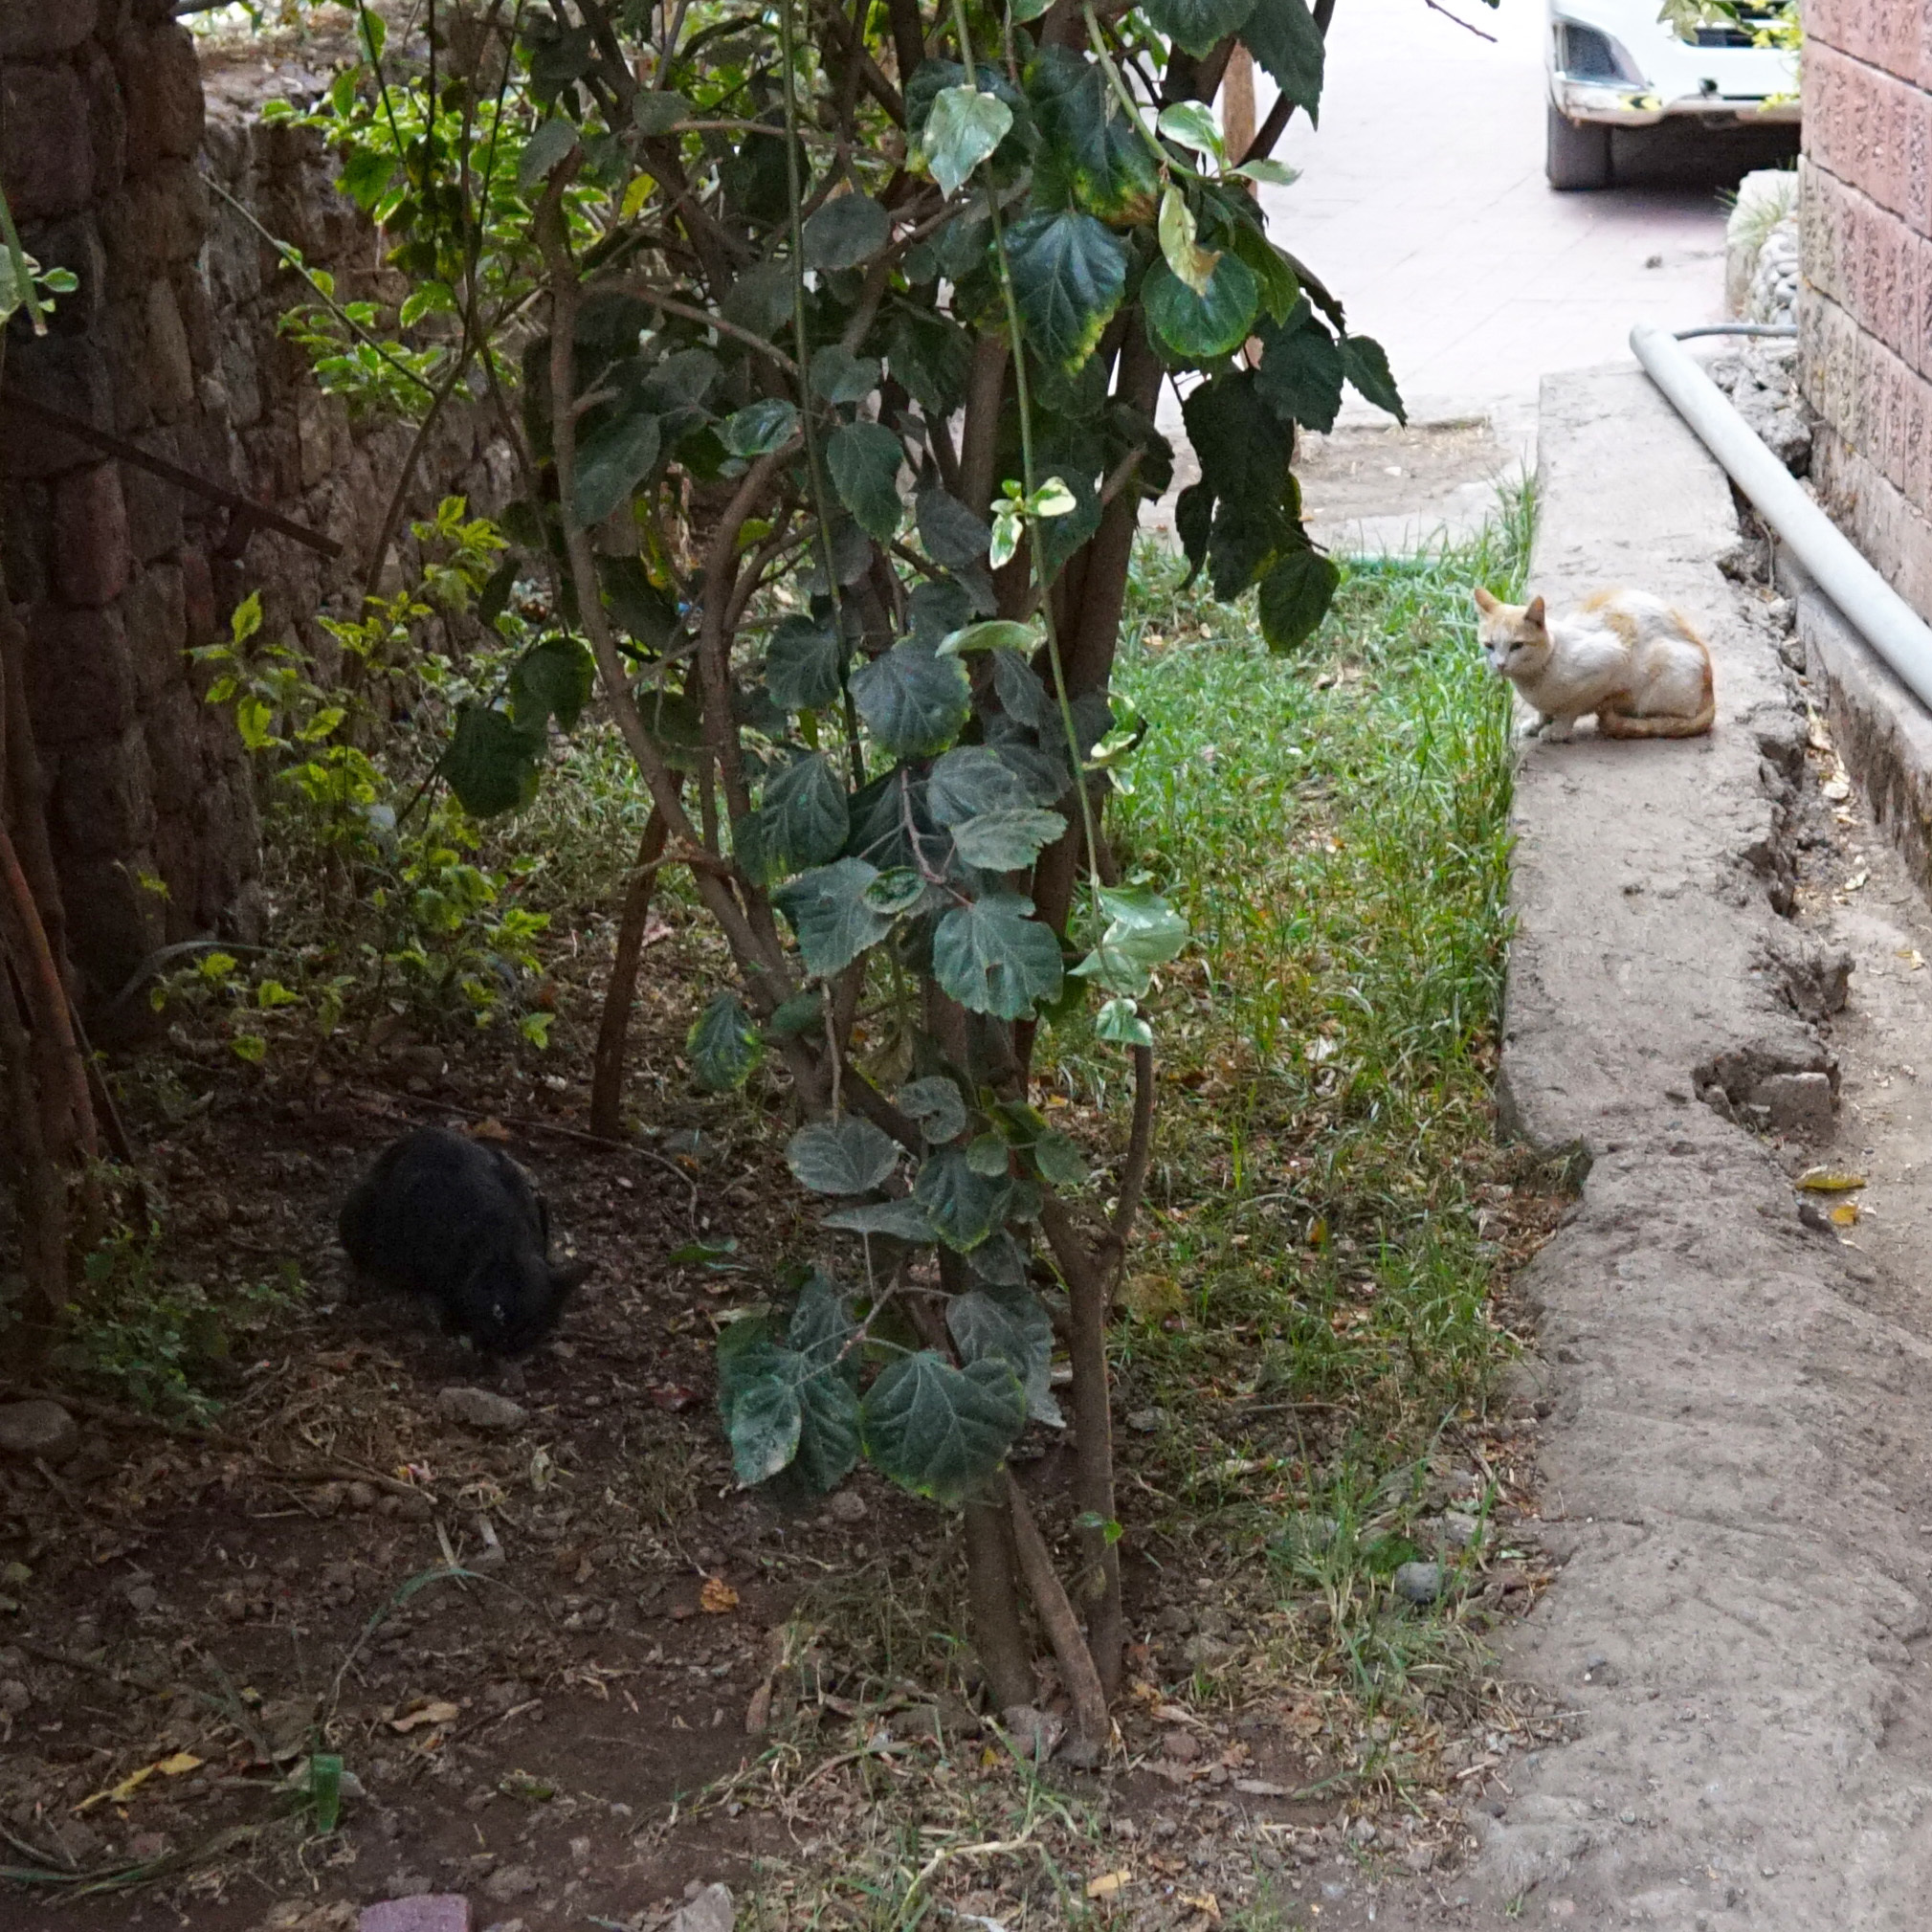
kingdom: Animalia
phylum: Chordata
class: Mammalia
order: Carnivora
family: Felidae
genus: Felis
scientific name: Felis catus
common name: Domestic cat
